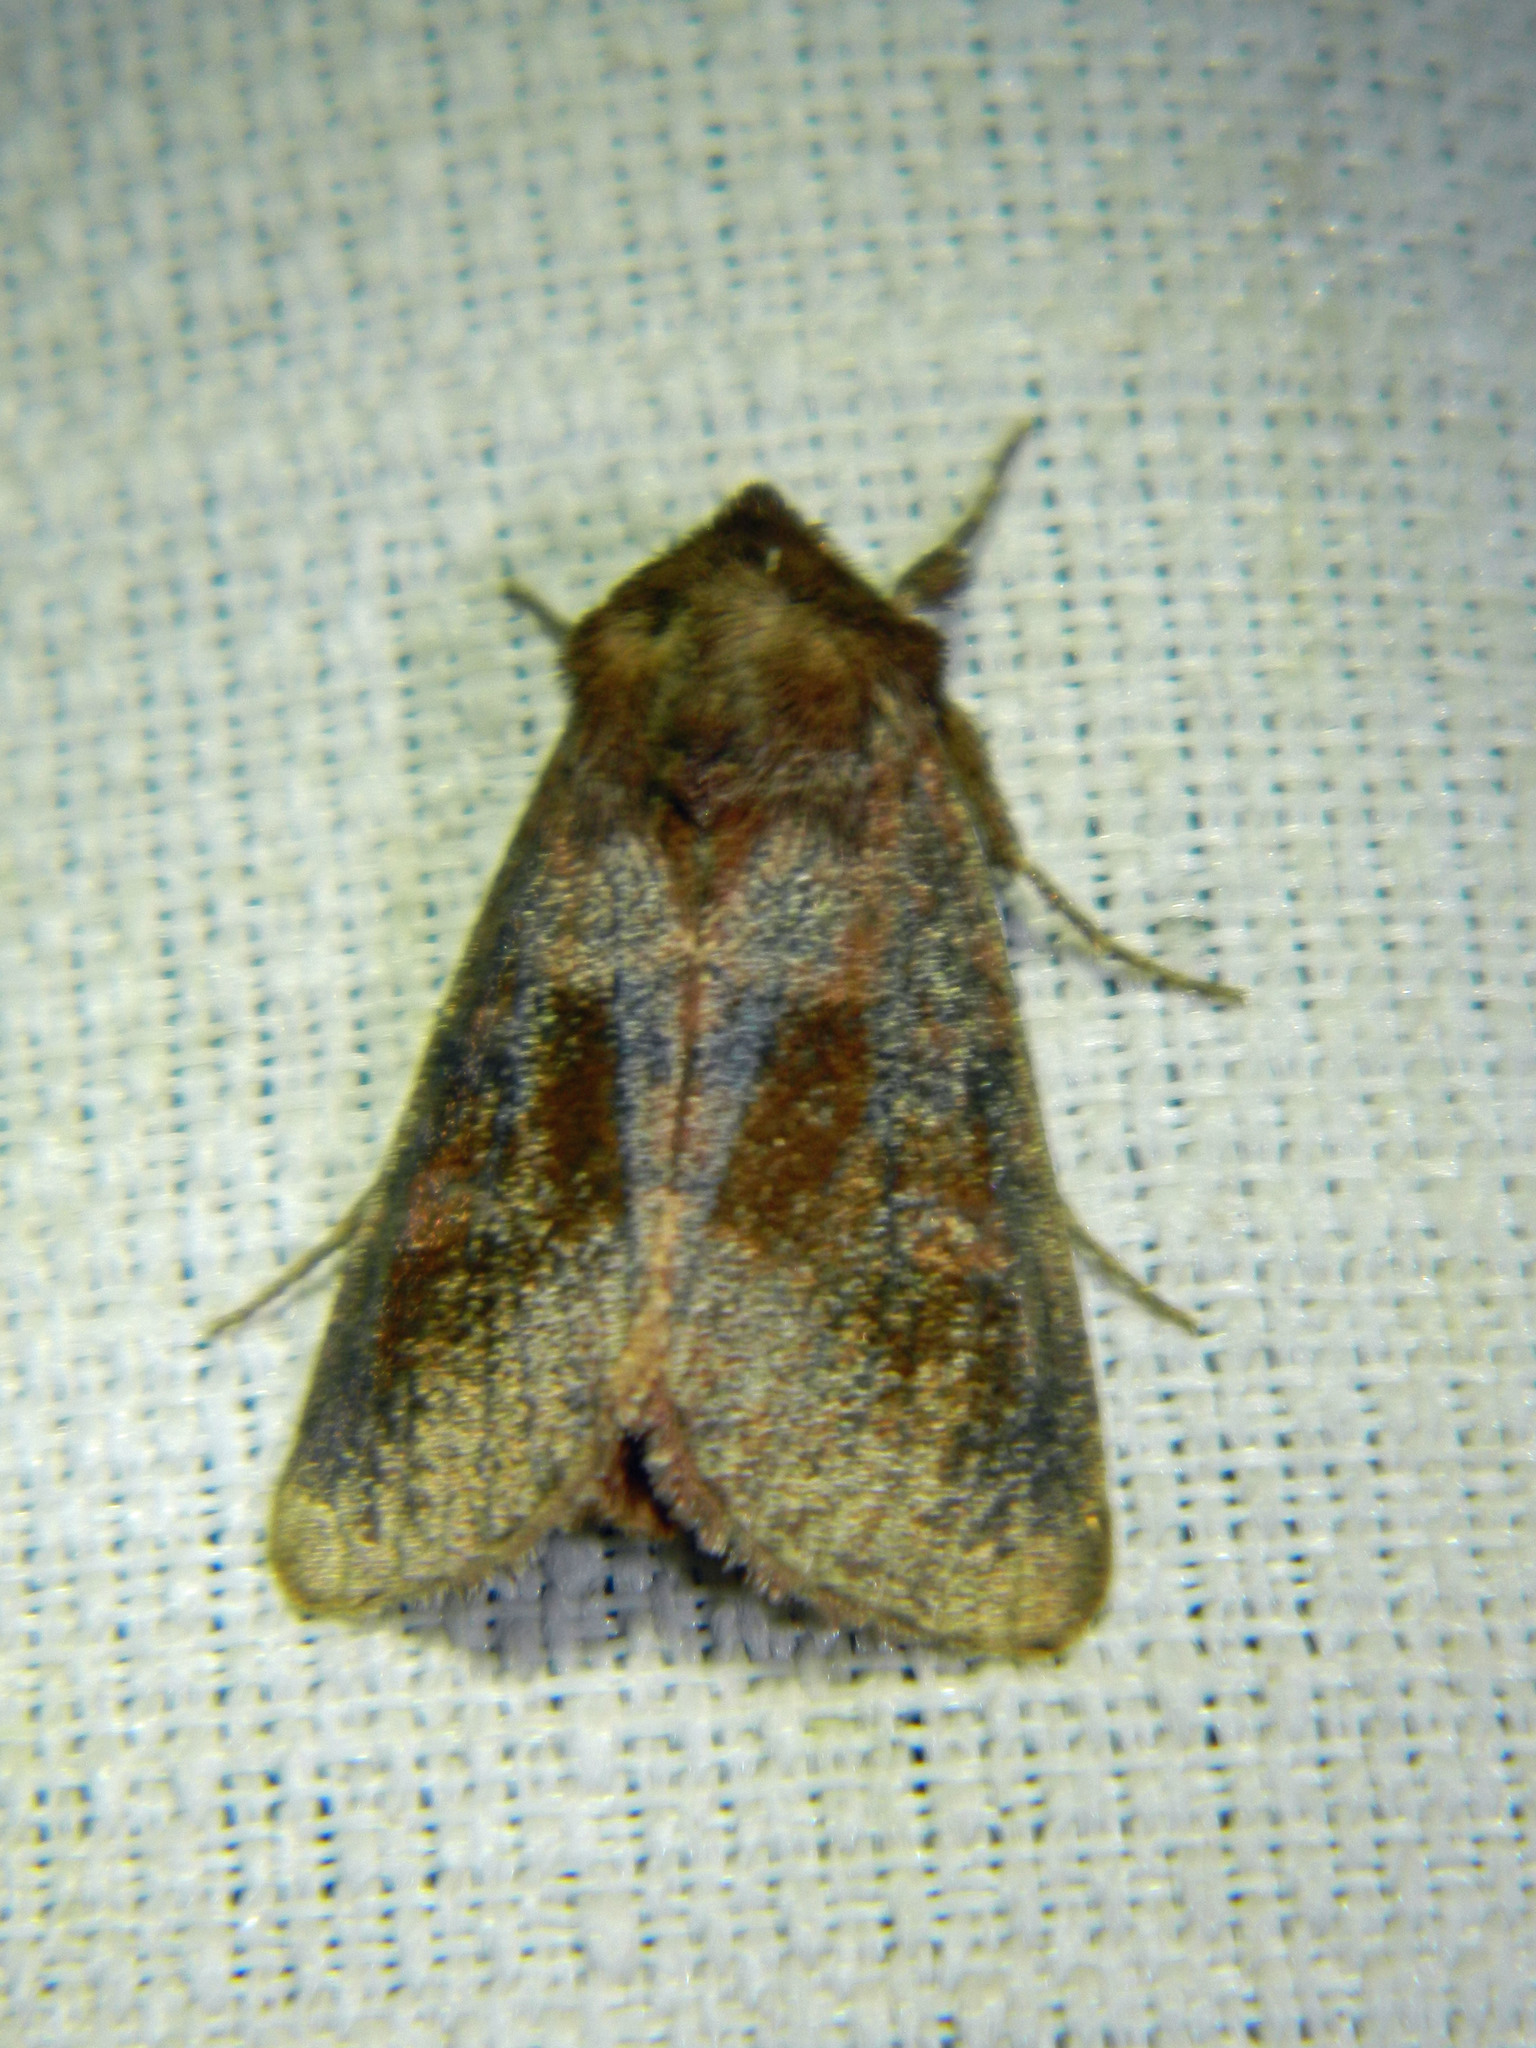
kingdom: Animalia
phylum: Arthropoda
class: Insecta
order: Lepidoptera
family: Noctuidae
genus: Nephelodes
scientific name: Nephelodes minians
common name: Bronzed cutworm
